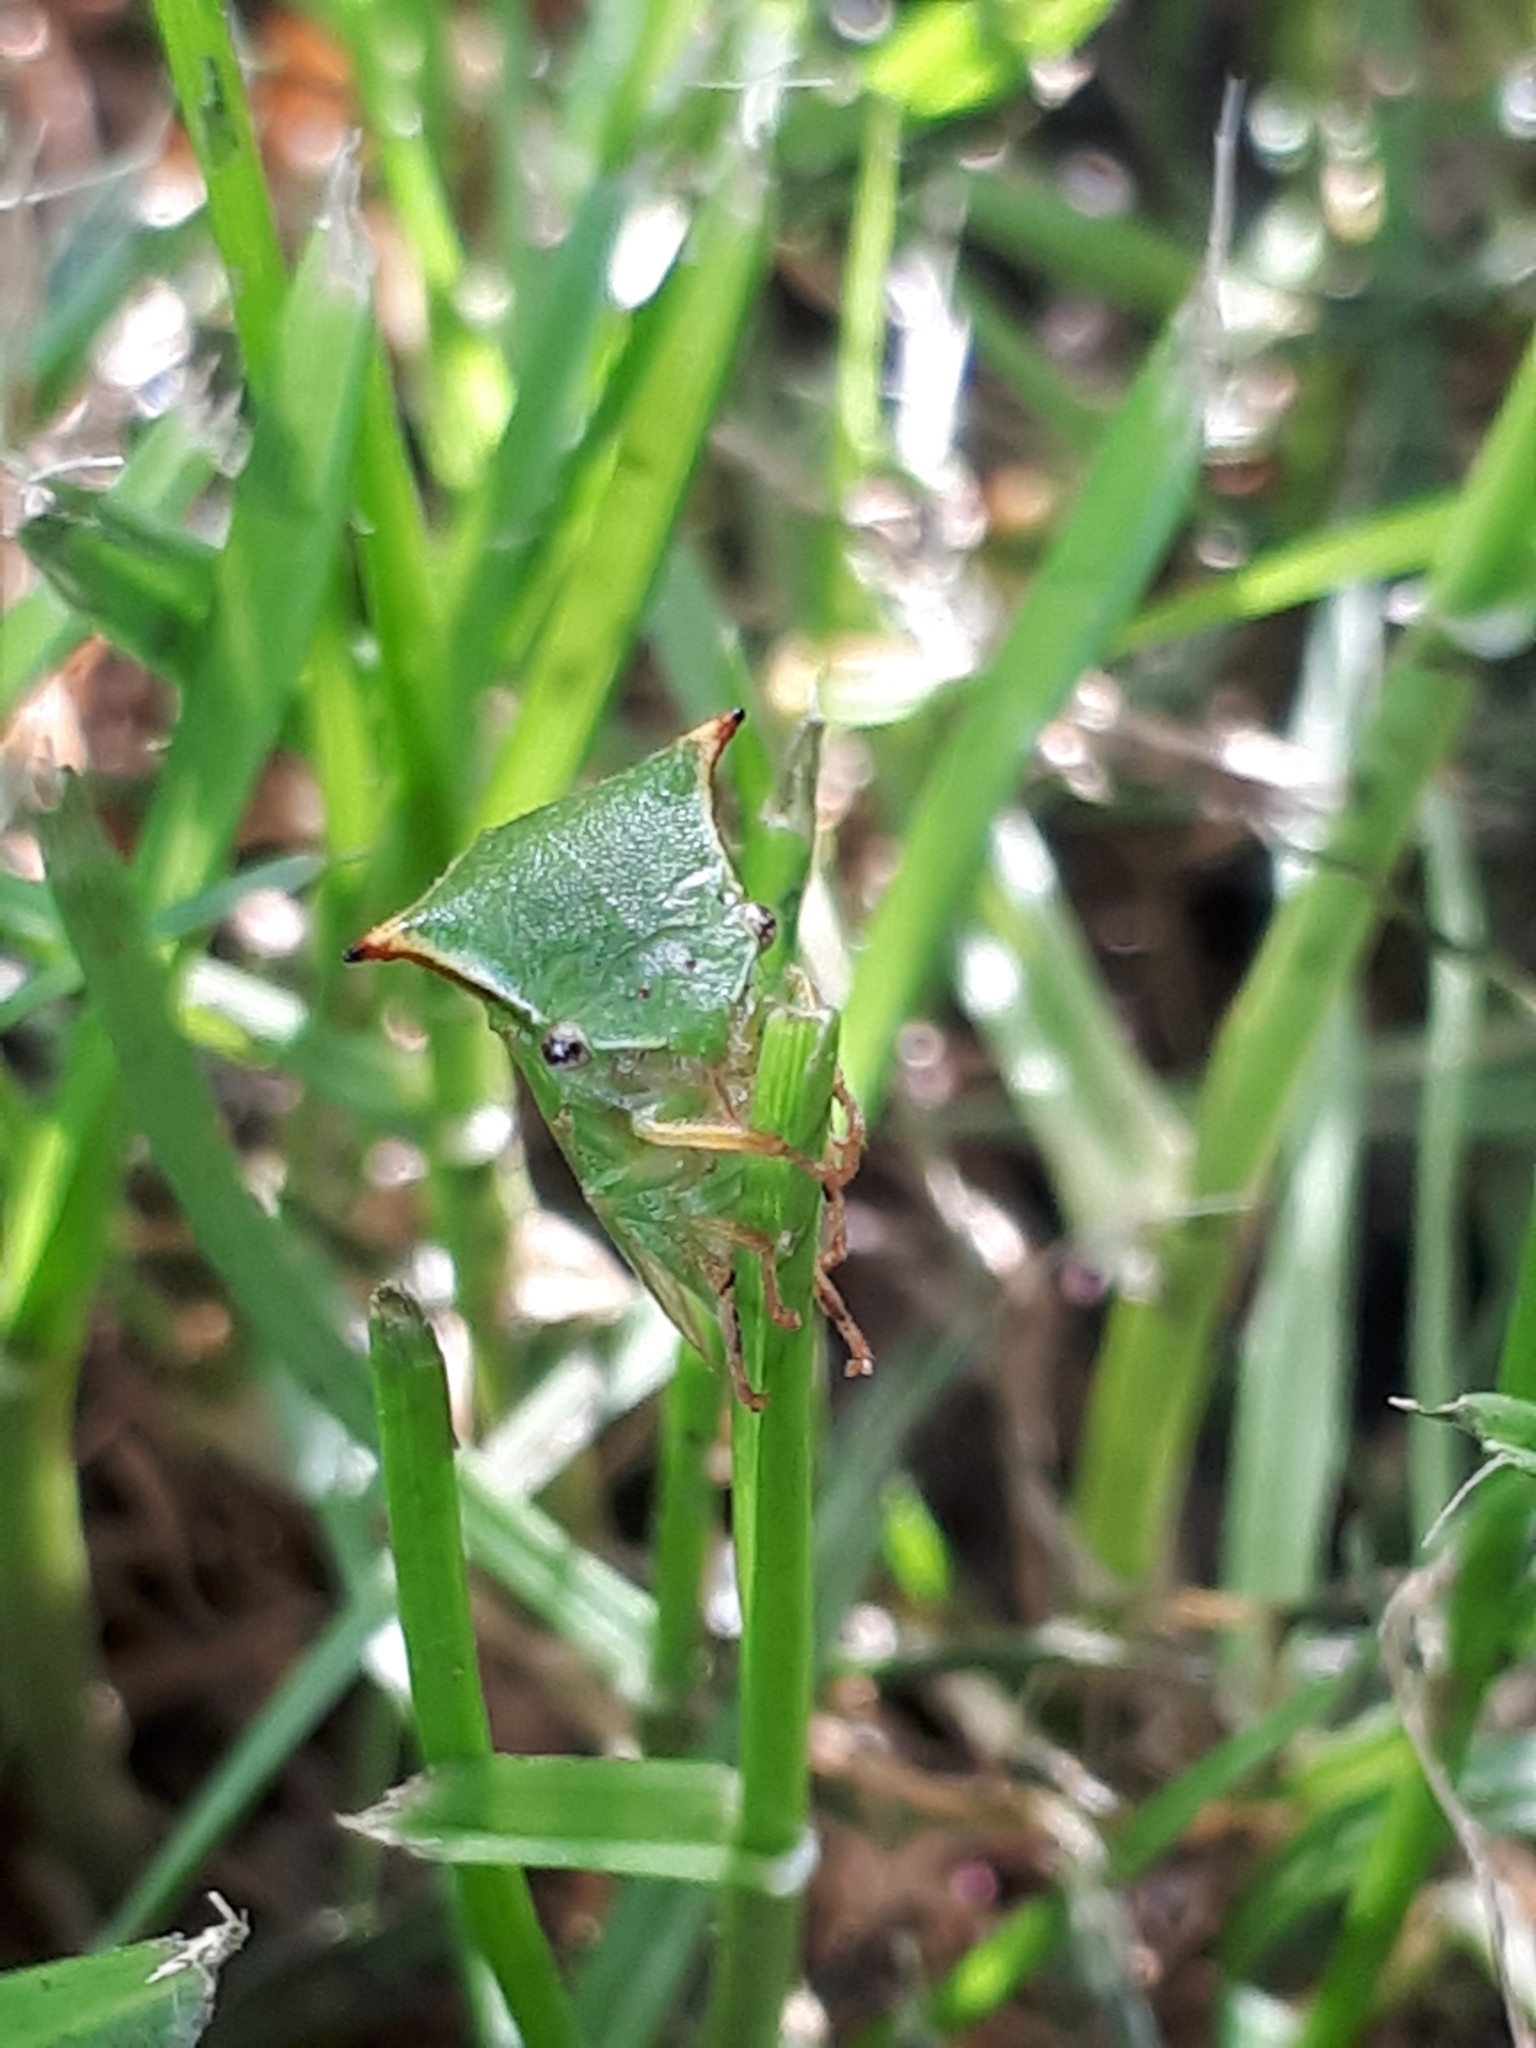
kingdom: Animalia
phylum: Arthropoda
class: Insecta
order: Hemiptera
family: Membracidae
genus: Stictocephala
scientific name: Stictocephala bisonia
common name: American buffalo treehopper
